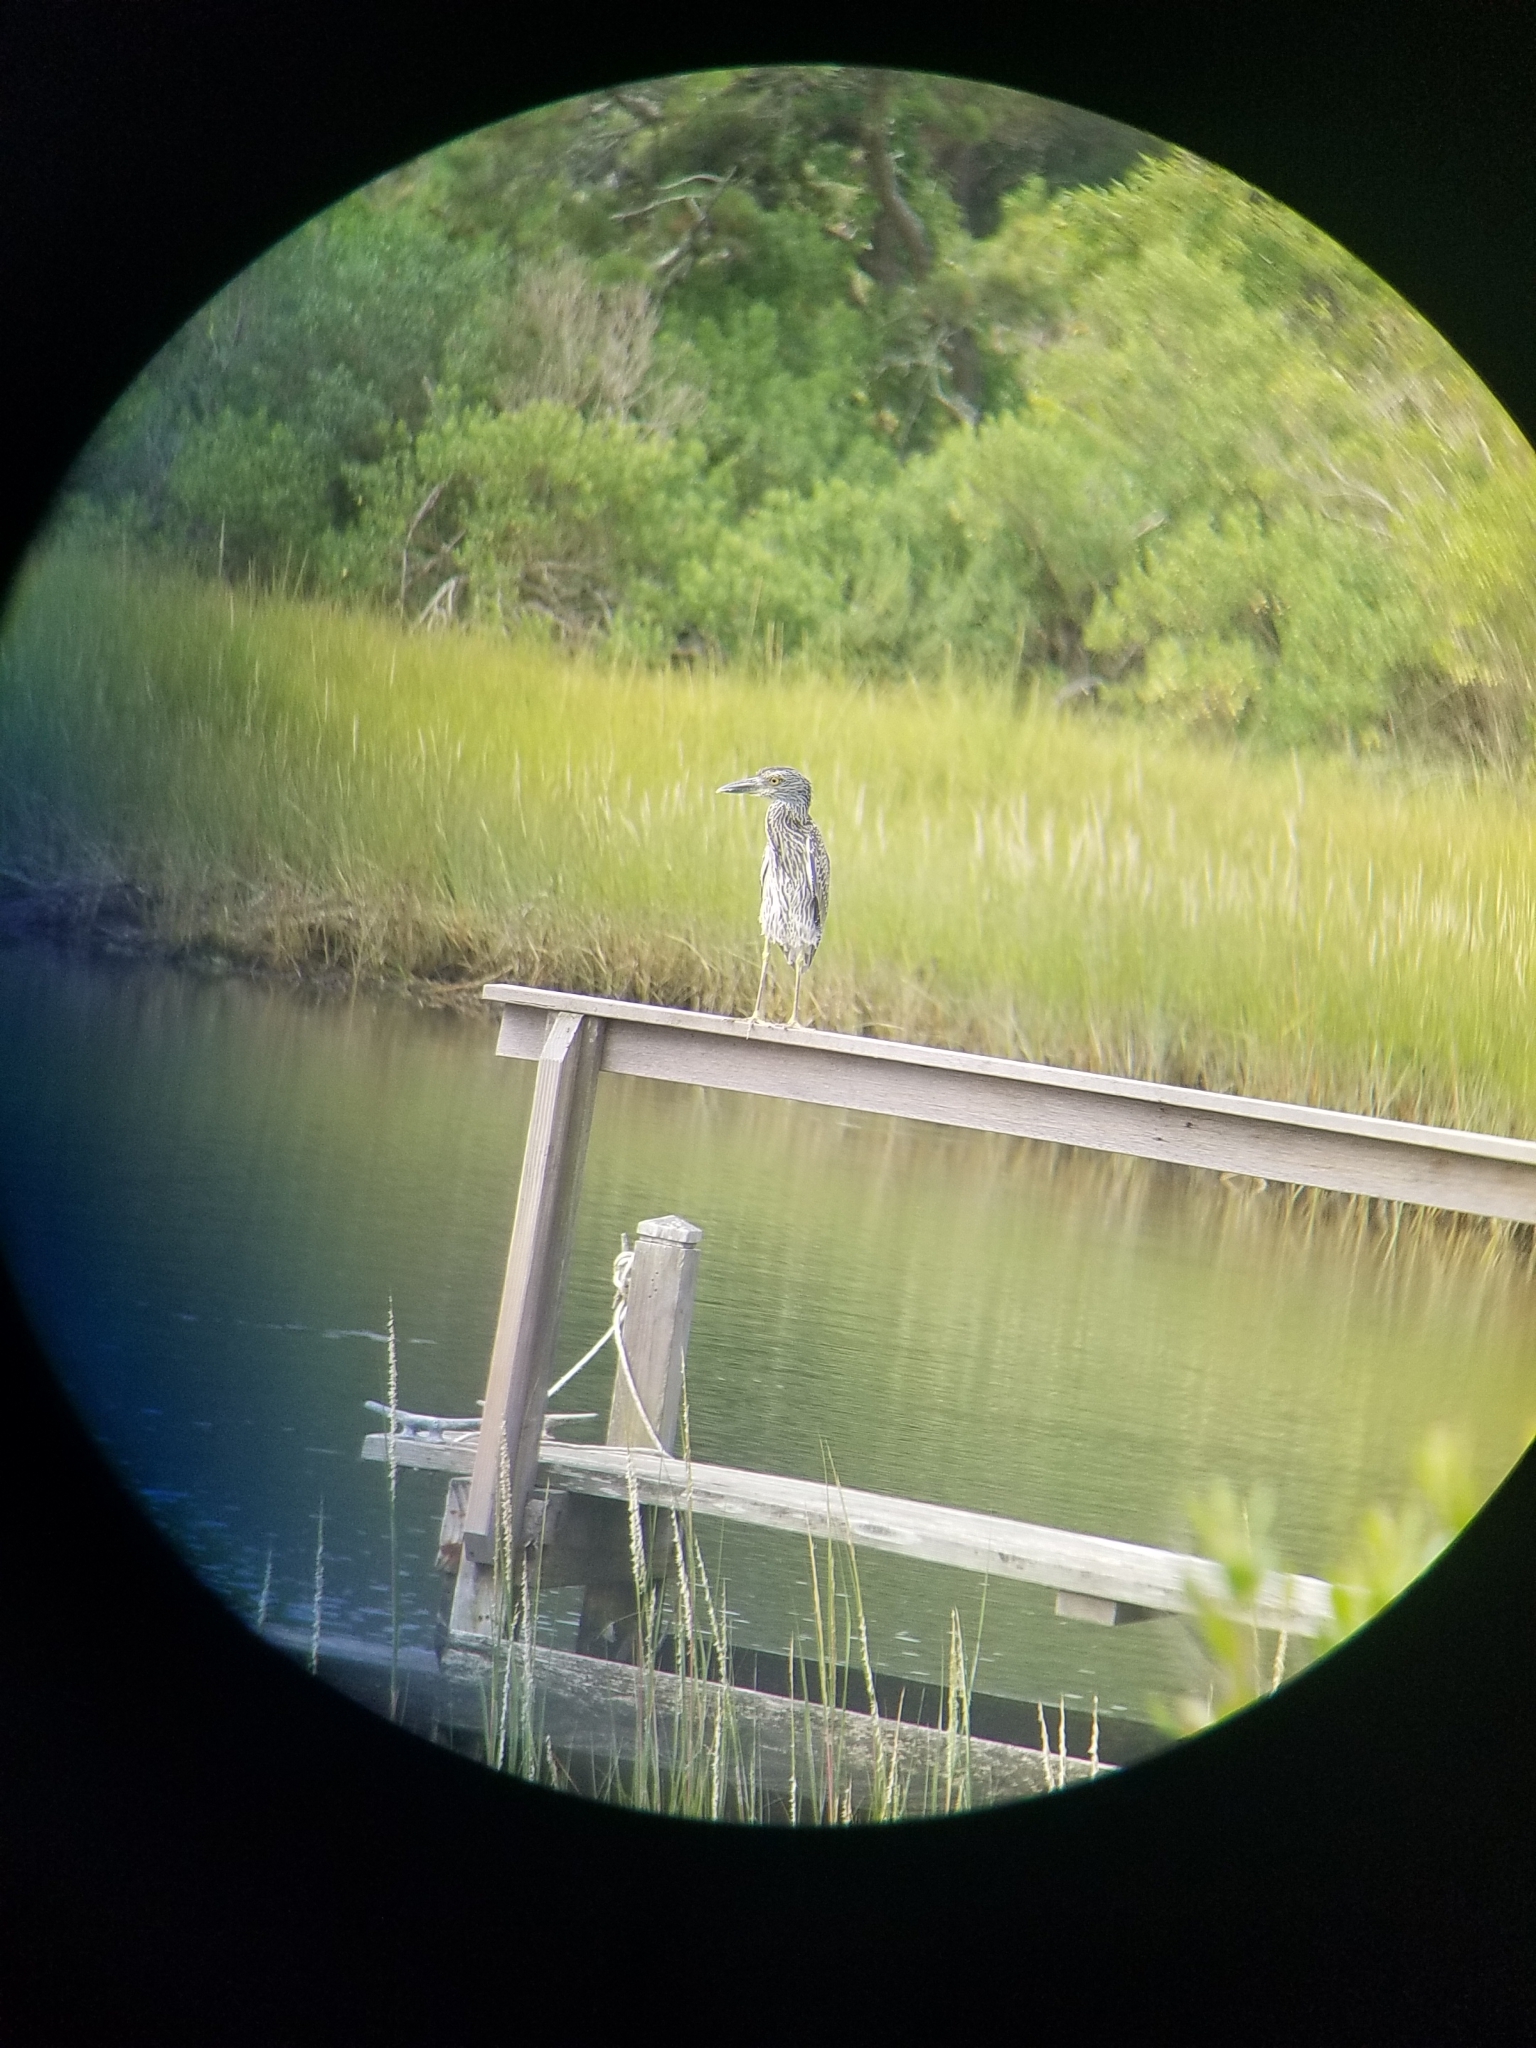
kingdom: Animalia
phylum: Chordata
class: Aves
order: Pelecaniformes
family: Ardeidae
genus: Nyctanassa
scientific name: Nyctanassa violacea
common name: Yellow-crowned night heron
